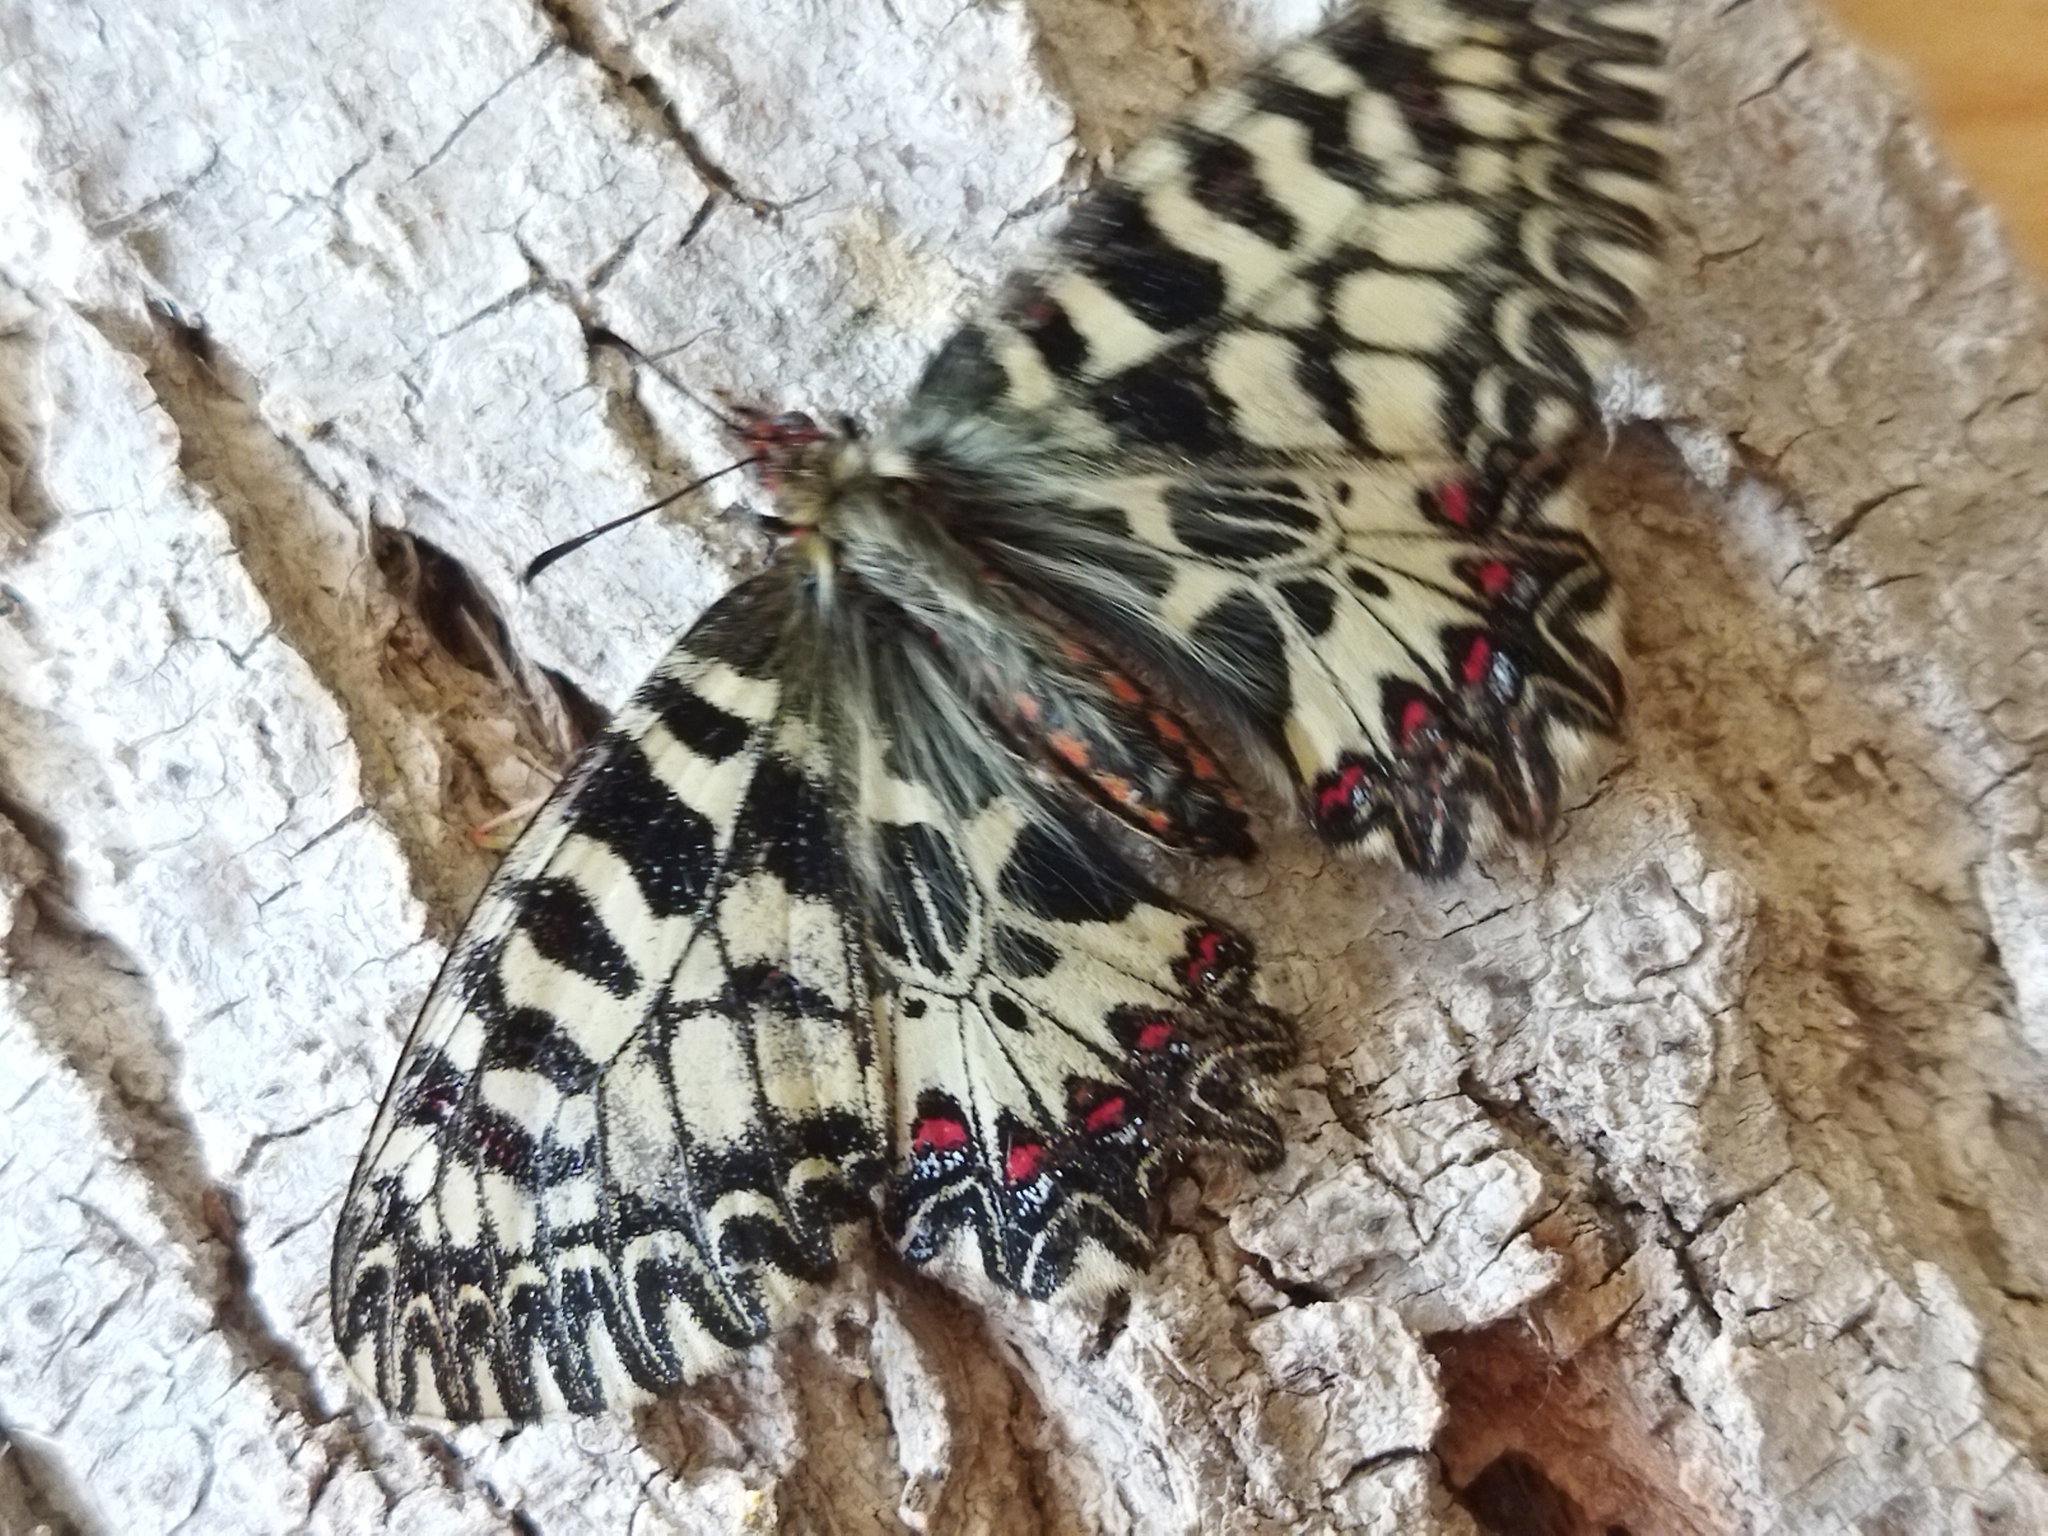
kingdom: Animalia
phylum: Arthropoda
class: Insecta
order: Lepidoptera
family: Papilionidae
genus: Zerynthia
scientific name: Zerynthia polyxena
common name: Southern festoon
